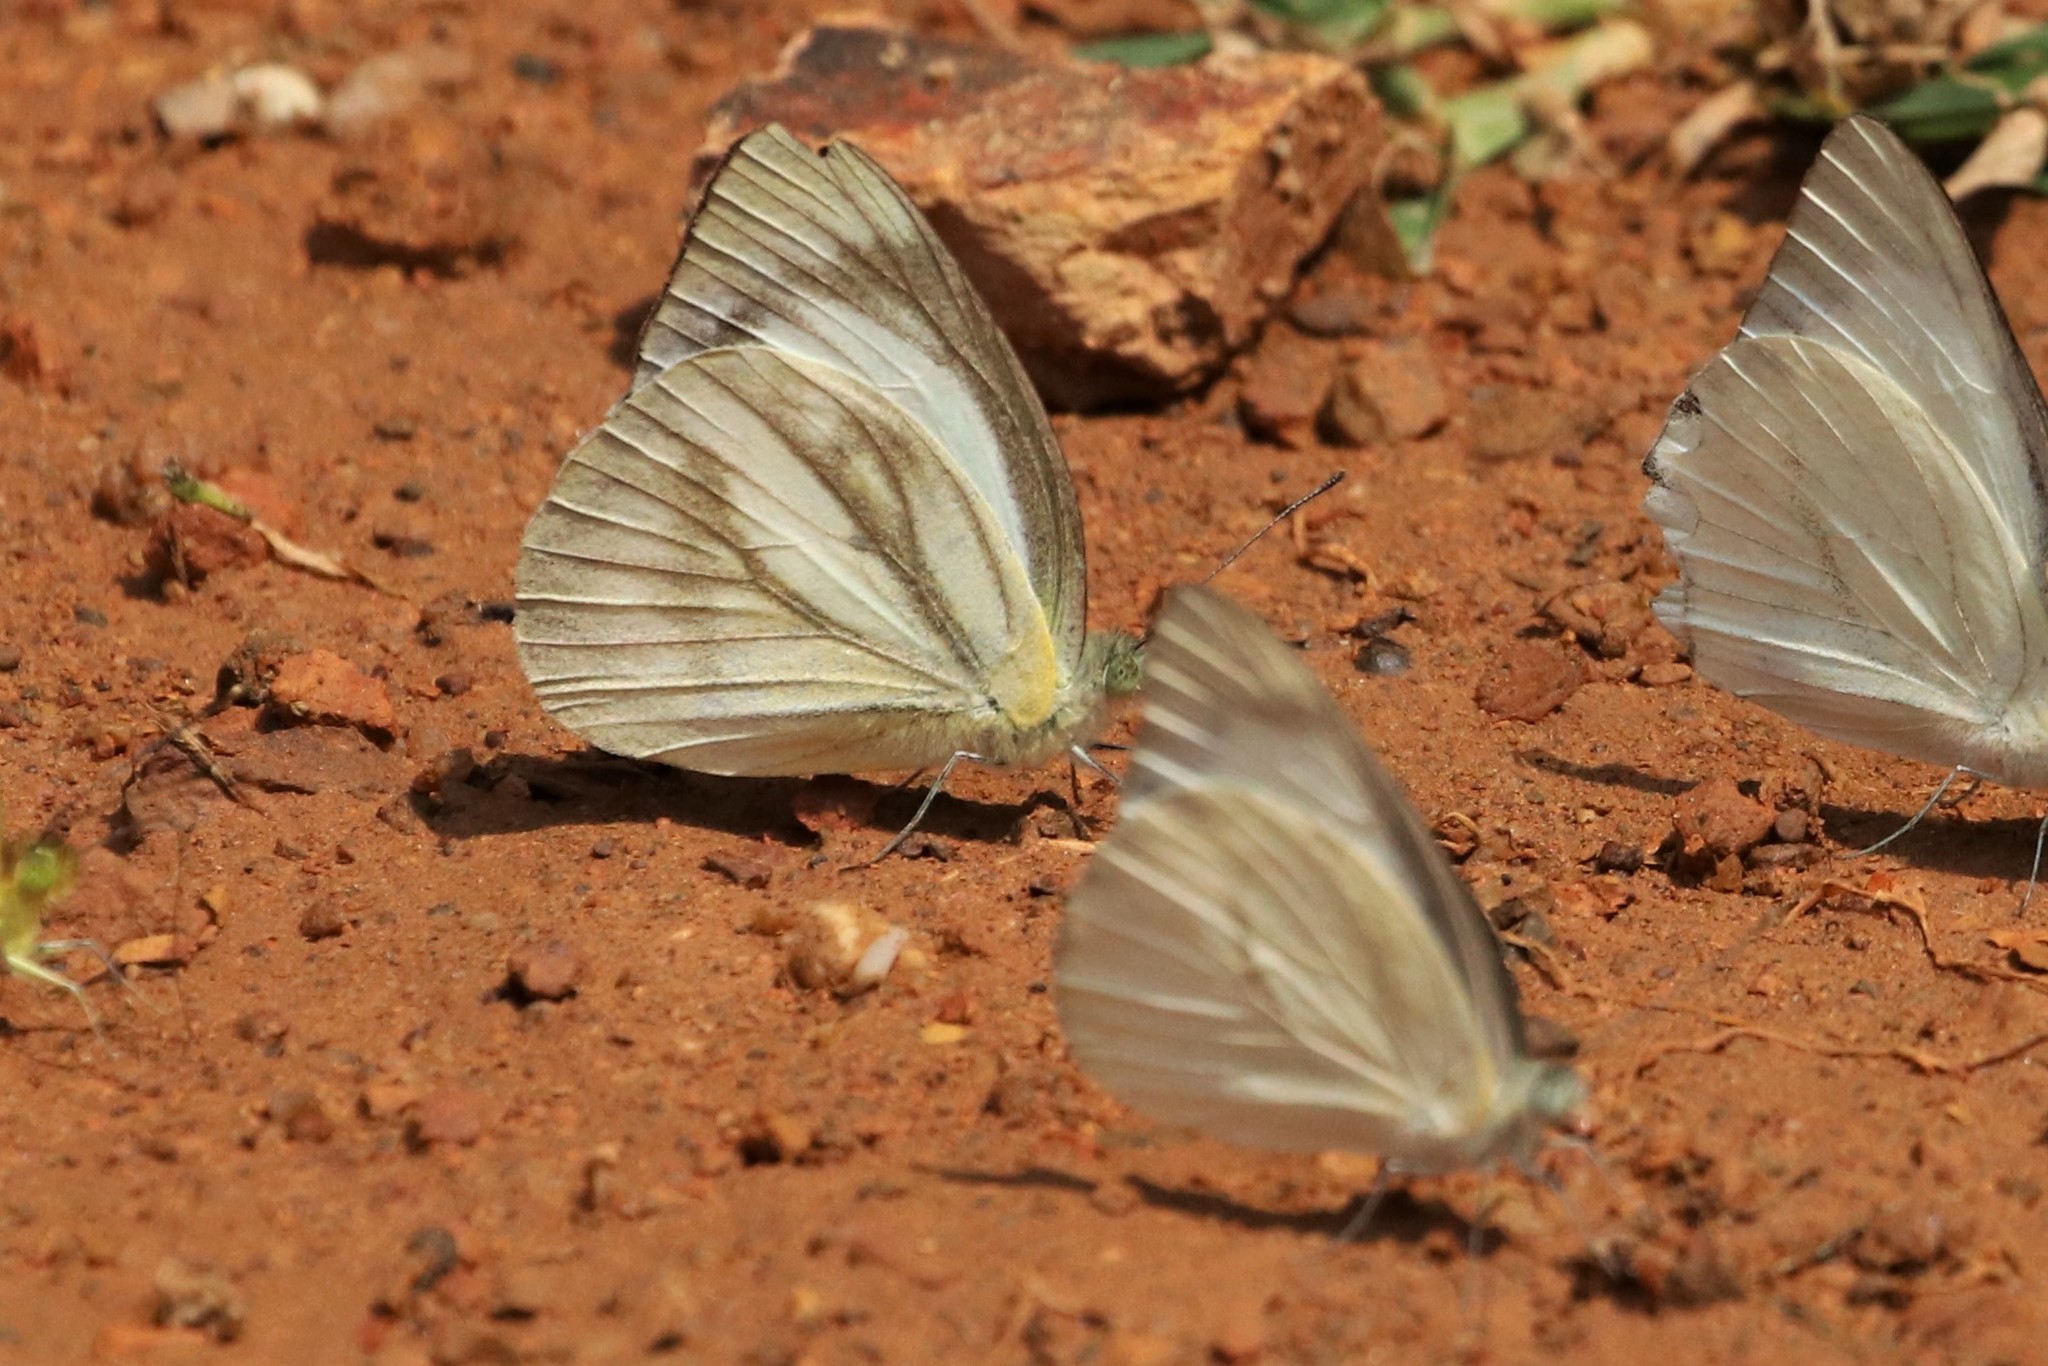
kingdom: Animalia
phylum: Arthropoda
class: Insecta
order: Lepidoptera
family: Pieridae
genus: Cepora
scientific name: Cepora nadina
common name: Lesser gull
